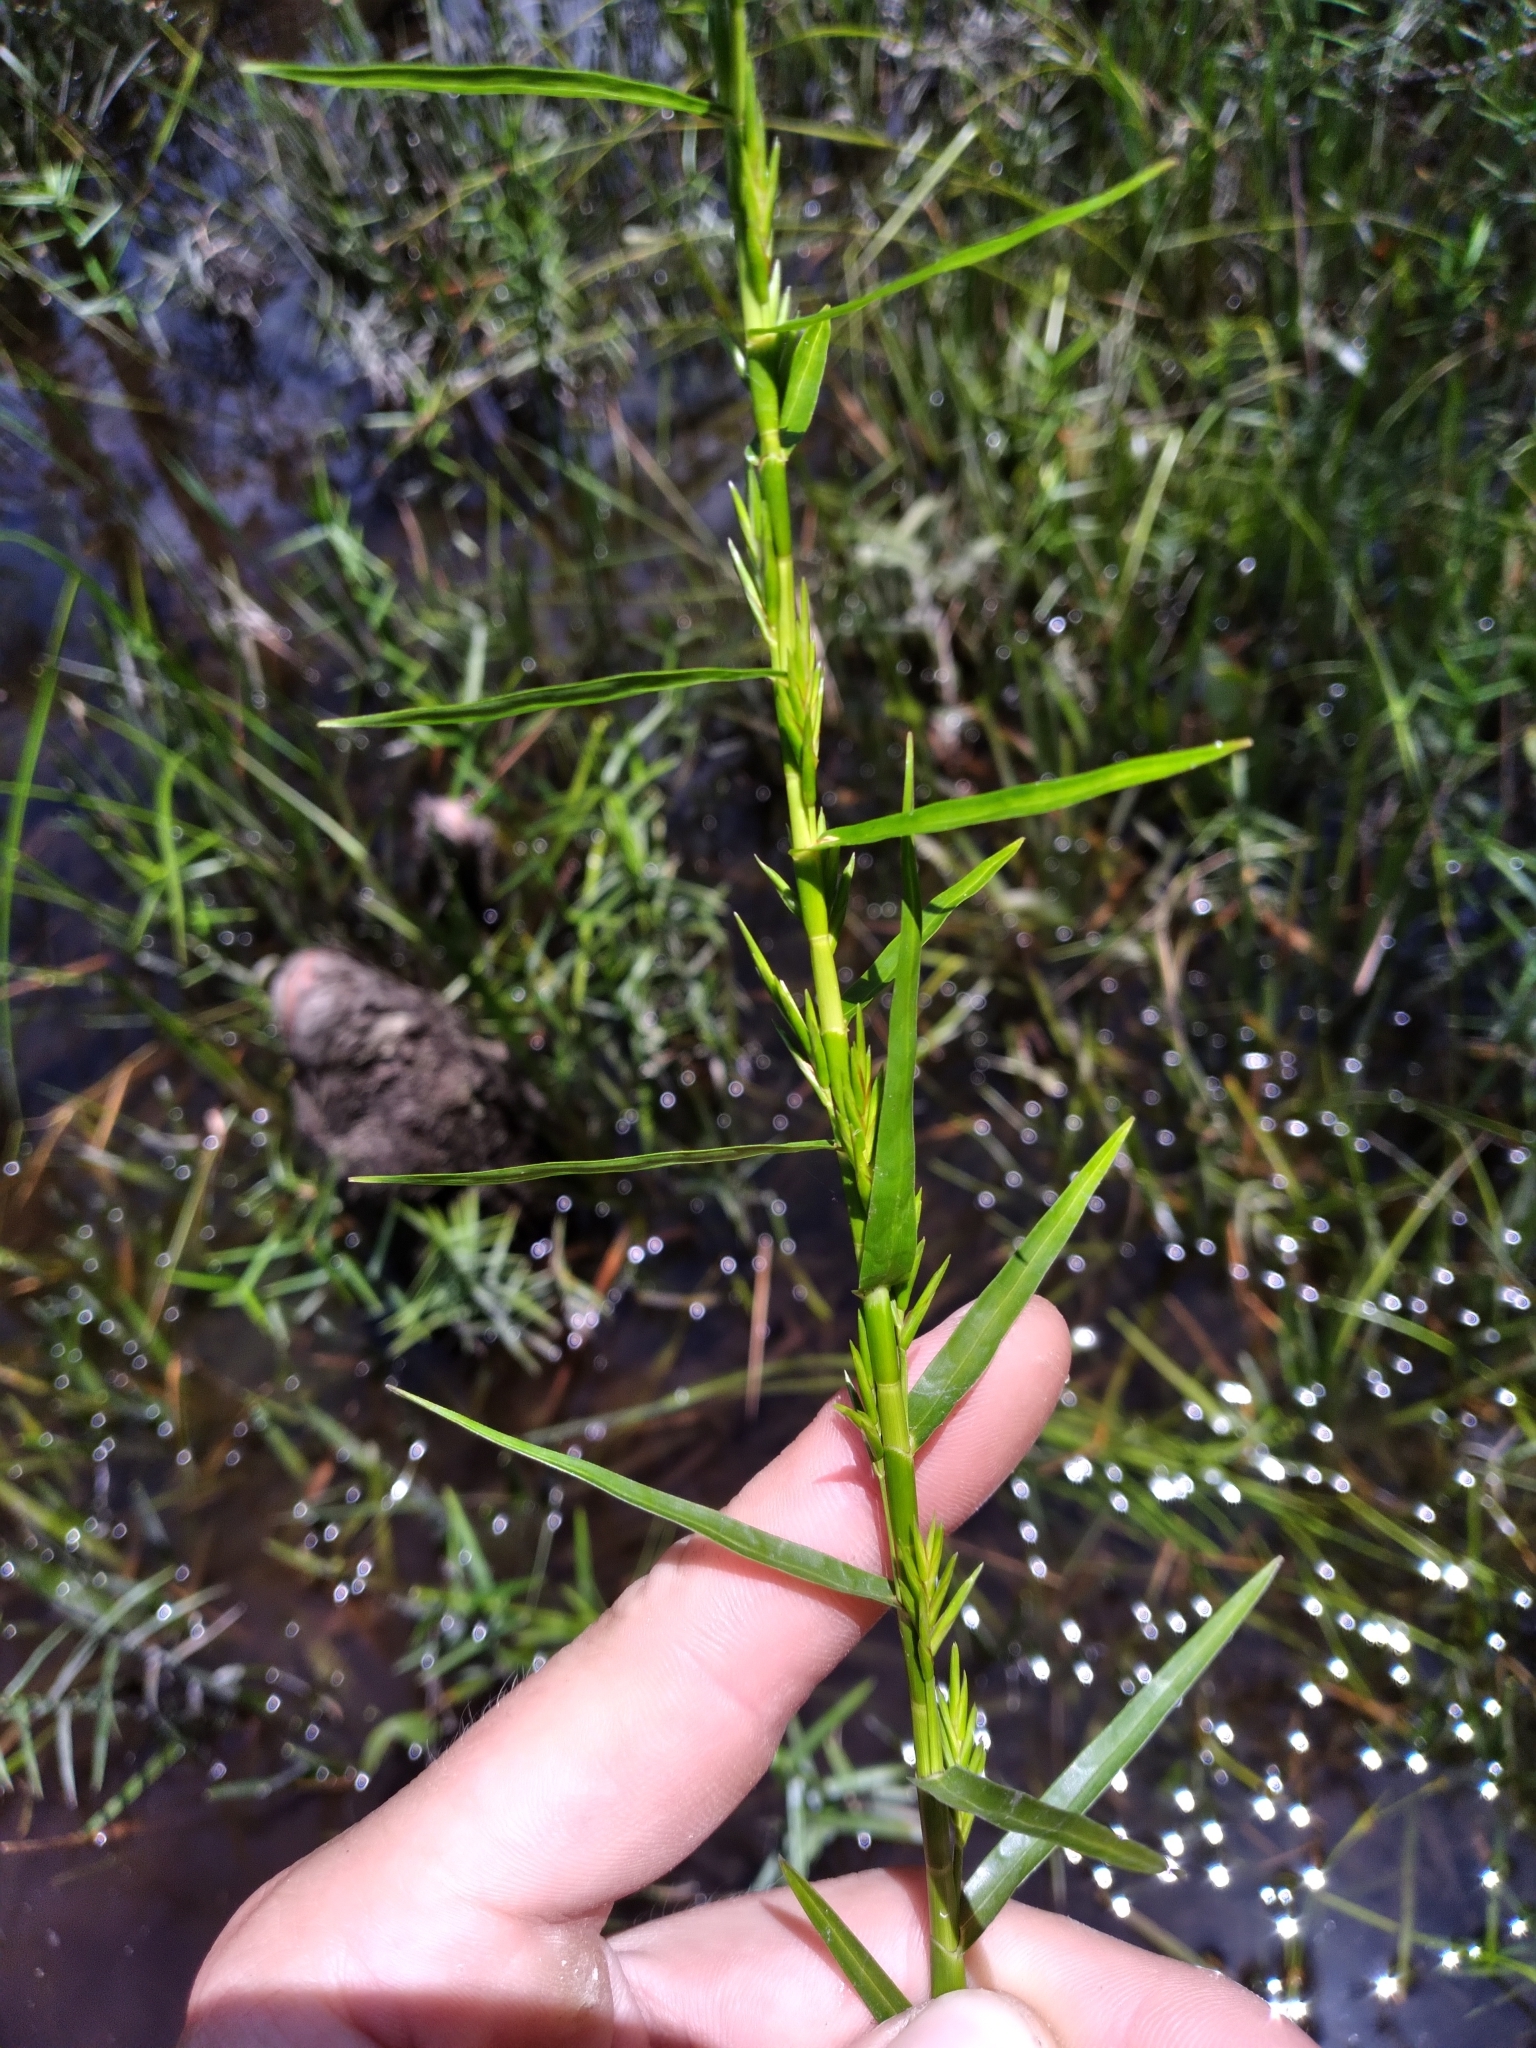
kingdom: Plantae
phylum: Tracheophyta
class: Liliopsida
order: Poales
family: Cyperaceae
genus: Dulichium
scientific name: Dulichium arundinaceum
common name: Three-way sedge
